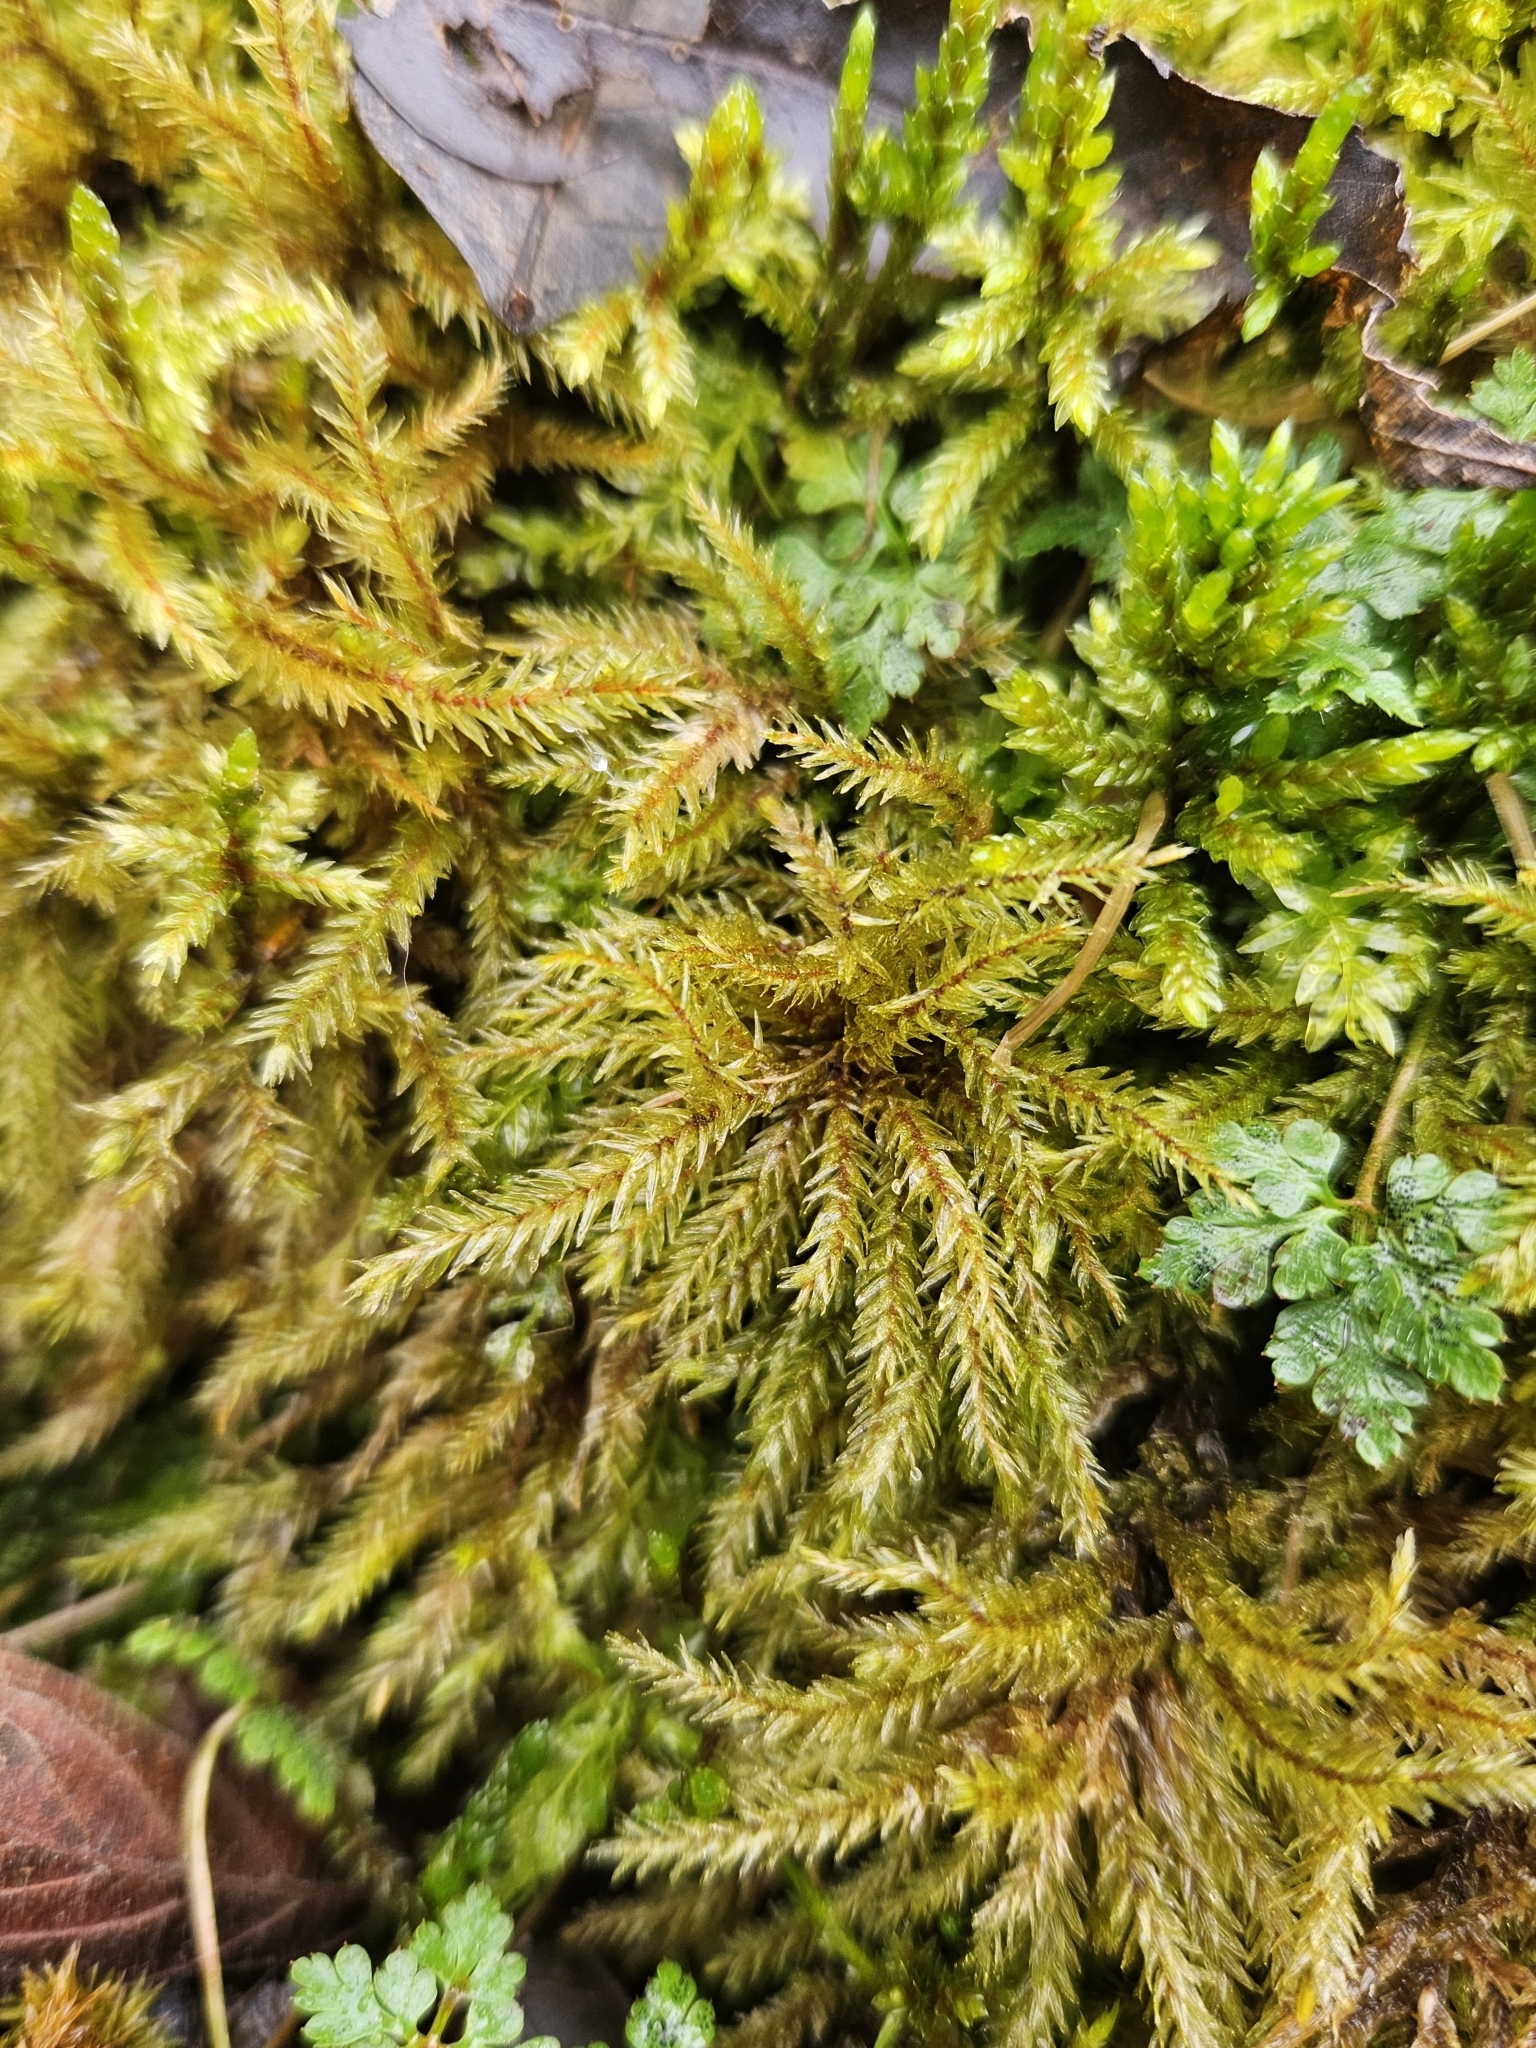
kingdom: Plantae
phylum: Bryophyta
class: Bryopsida
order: Hypnales
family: Climaciaceae
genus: Climacium
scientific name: Climacium dendroides
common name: Northern tree moss
